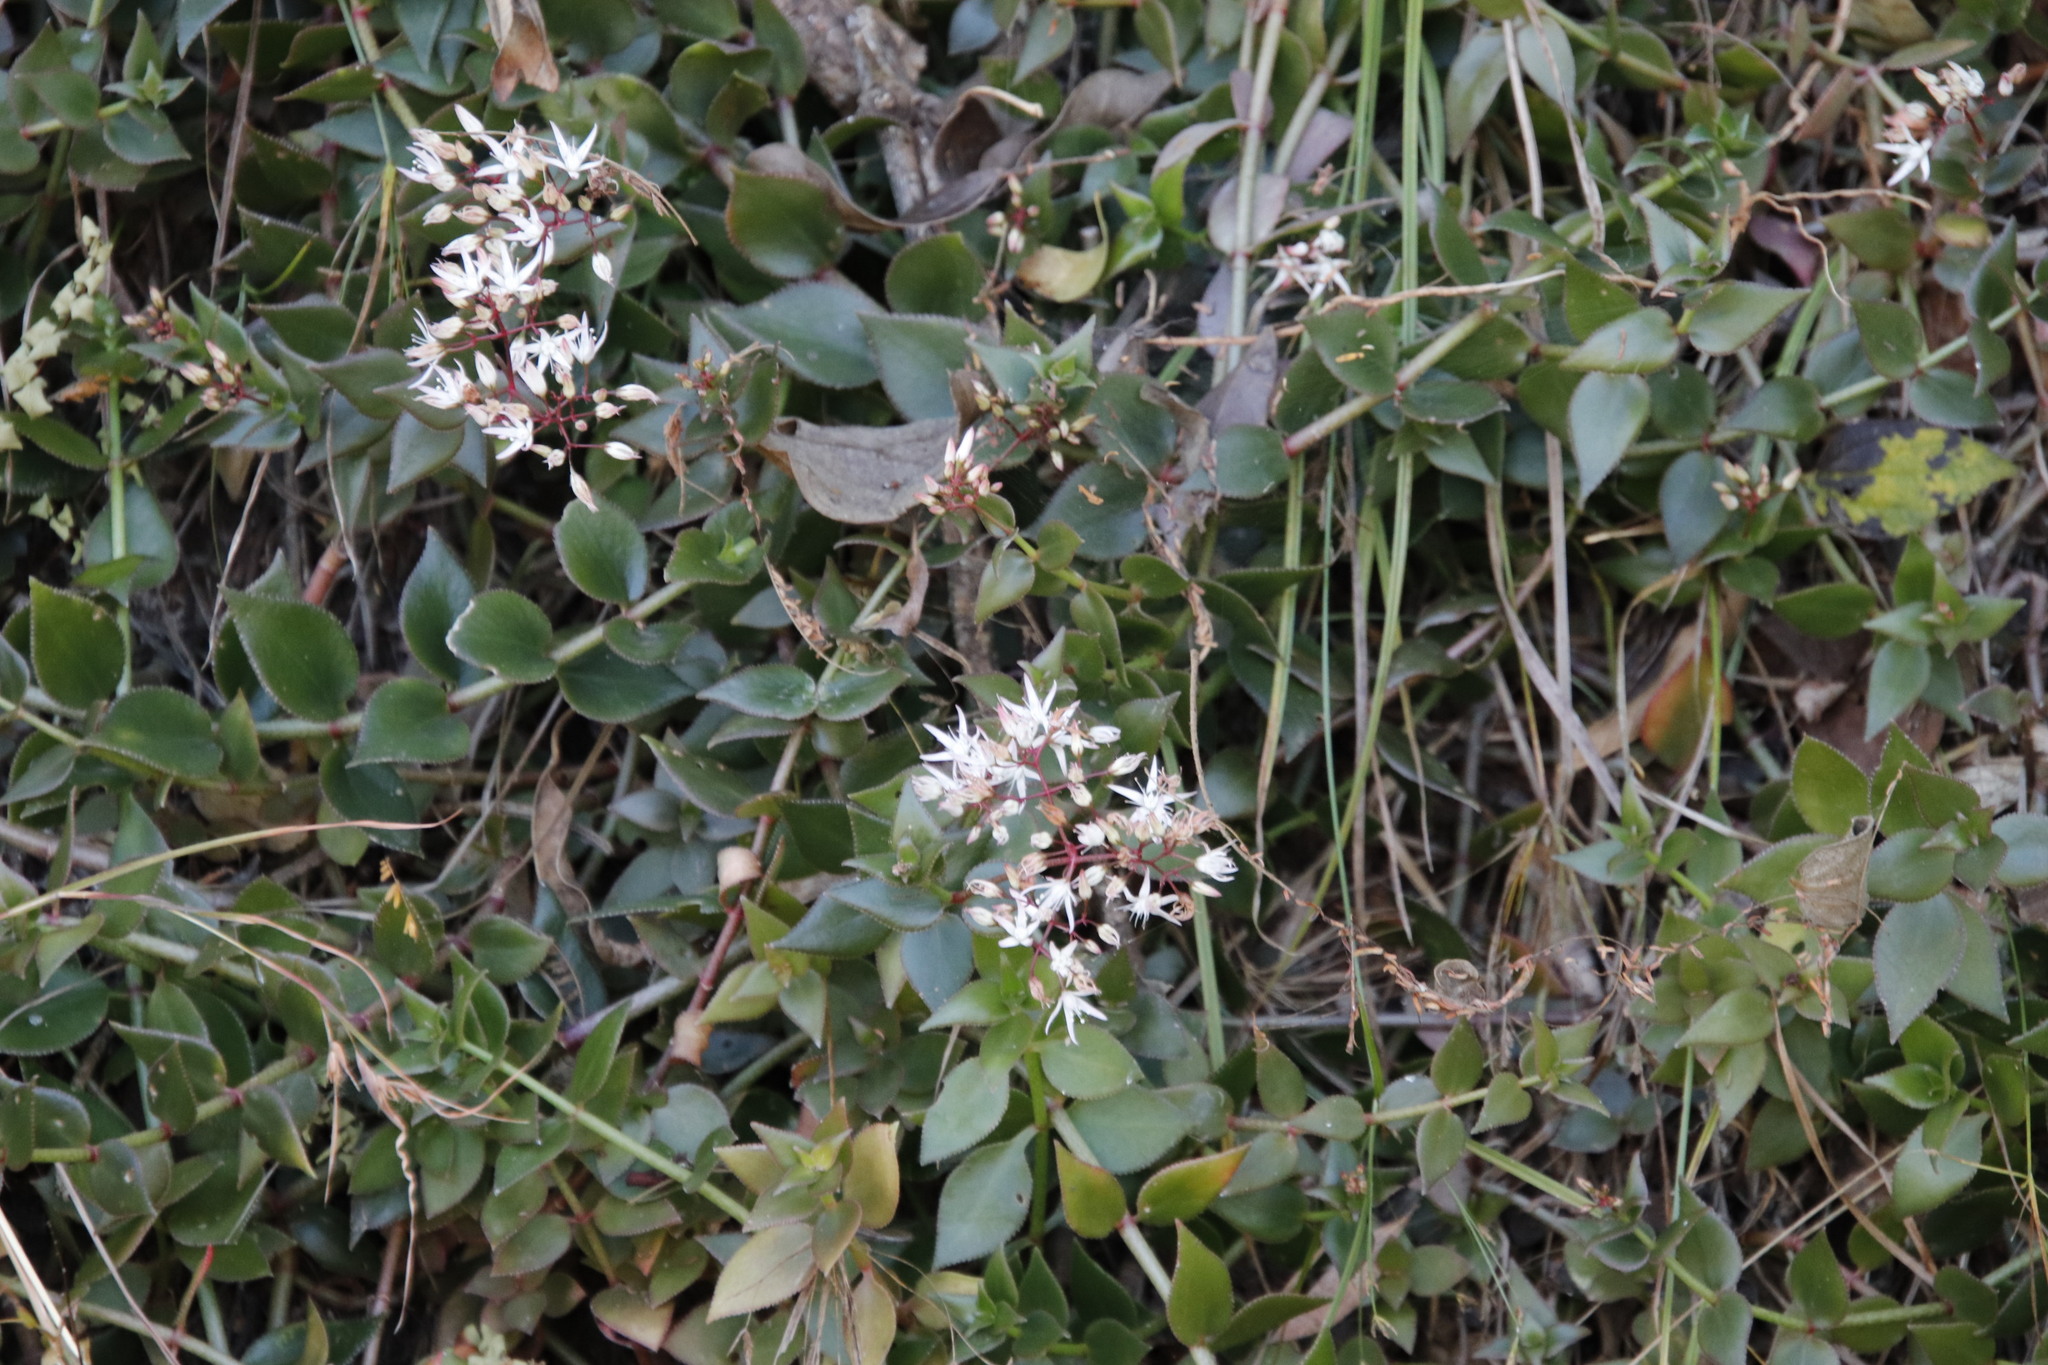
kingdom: Plantae
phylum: Tracheophyta
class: Magnoliopsida
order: Saxifragales
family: Crassulaceae
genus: Crassula
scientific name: Crassula sarmentosa
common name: Jade-tree
